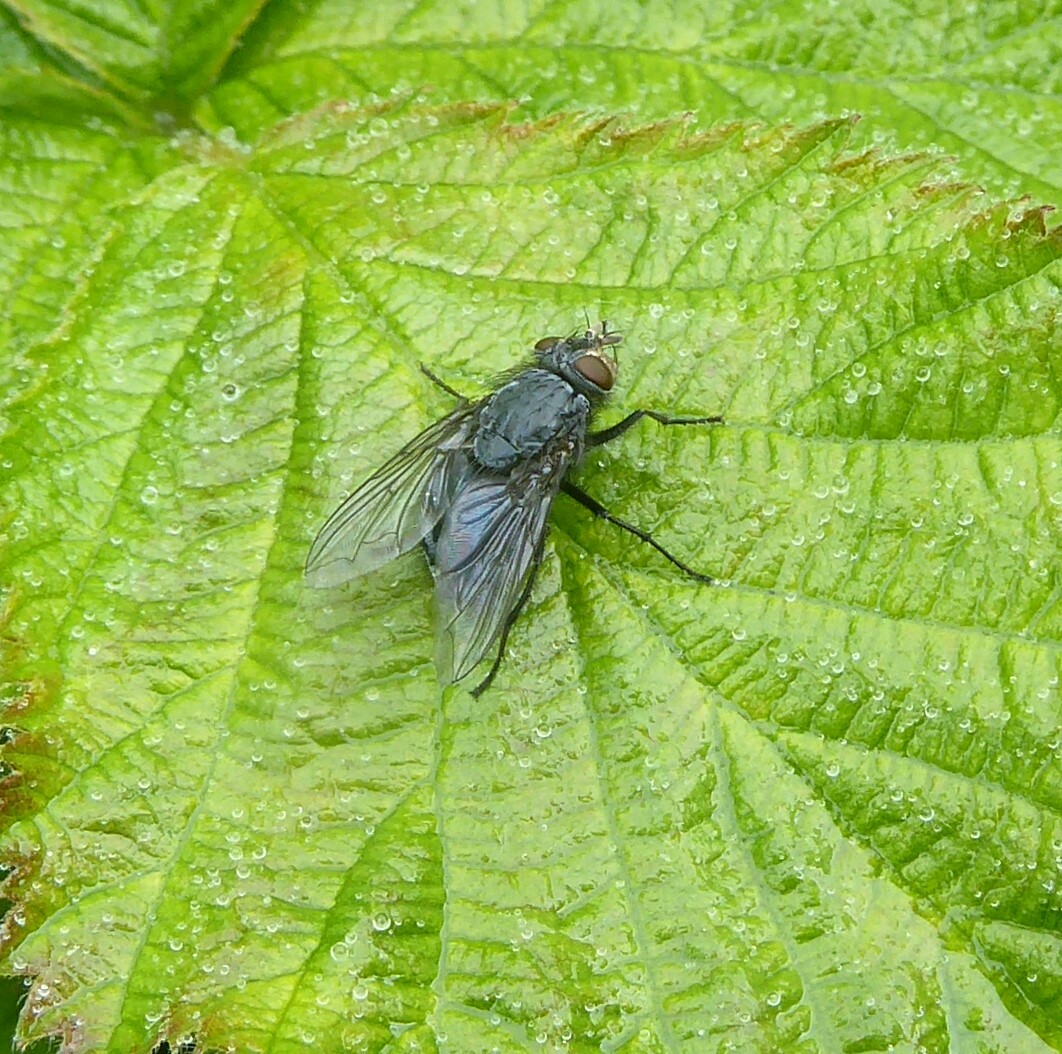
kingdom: Animalia
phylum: Arthropoda
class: Insecta
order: Diptera
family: Calliphoridae
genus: Calliphora
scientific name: Calliphora vicina
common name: Common blow flie
